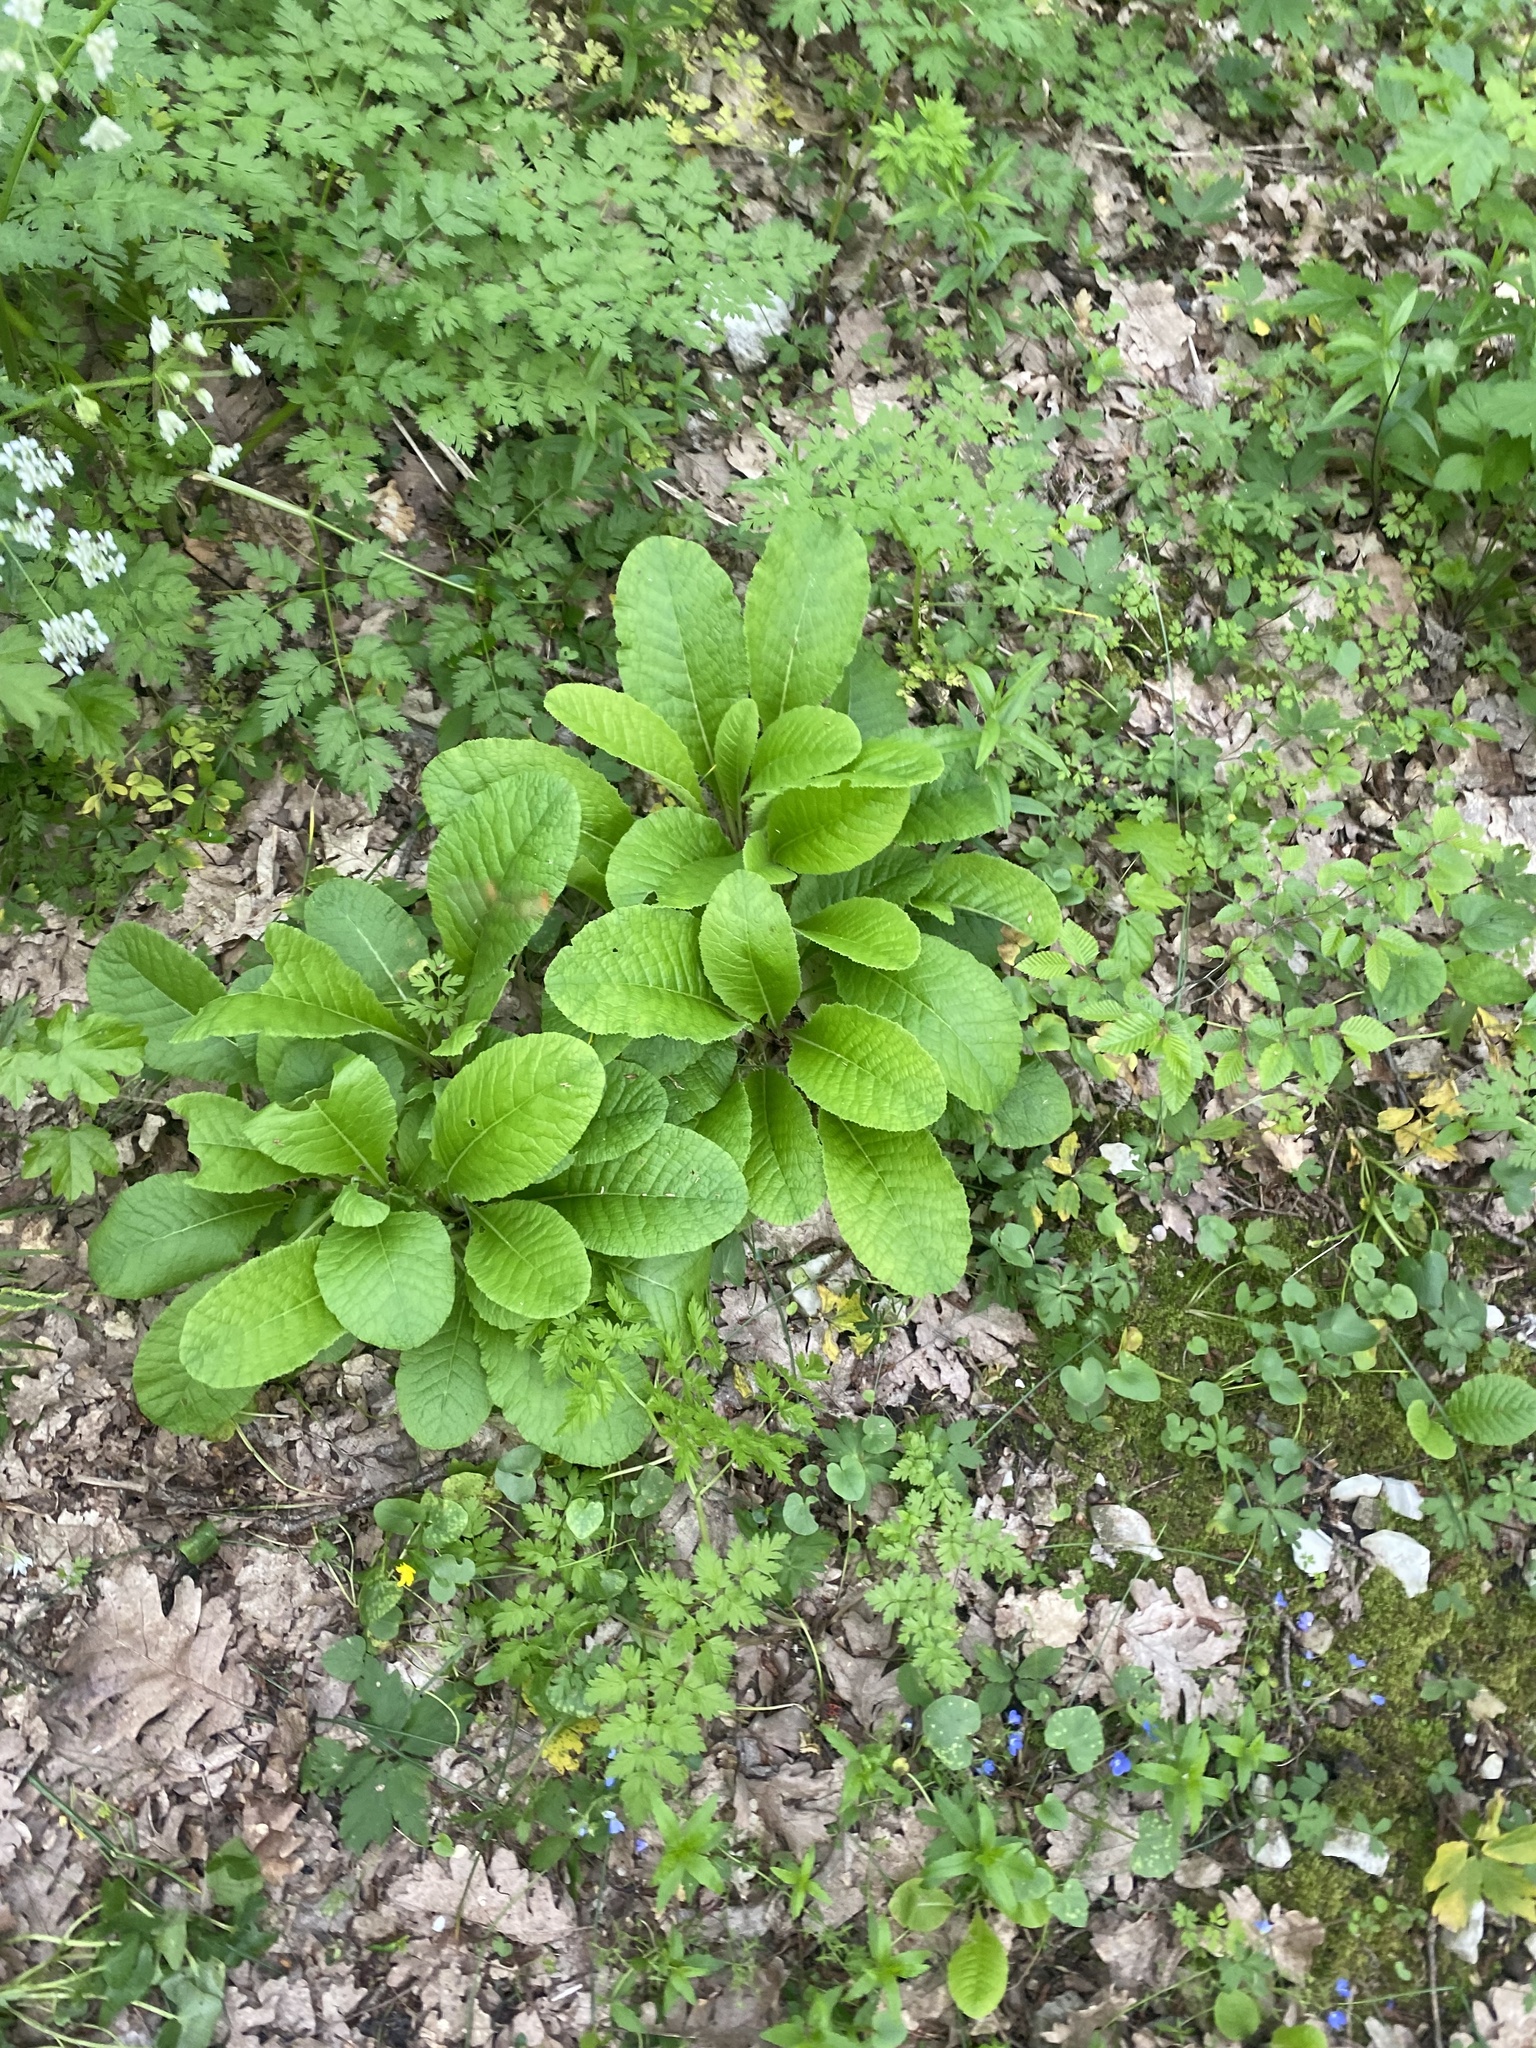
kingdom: Plantae
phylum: Tracheophyta
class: Magnoliopsida
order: Ericales
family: Primulaceae
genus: Primula
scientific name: Primula vulgaris
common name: Primrose
